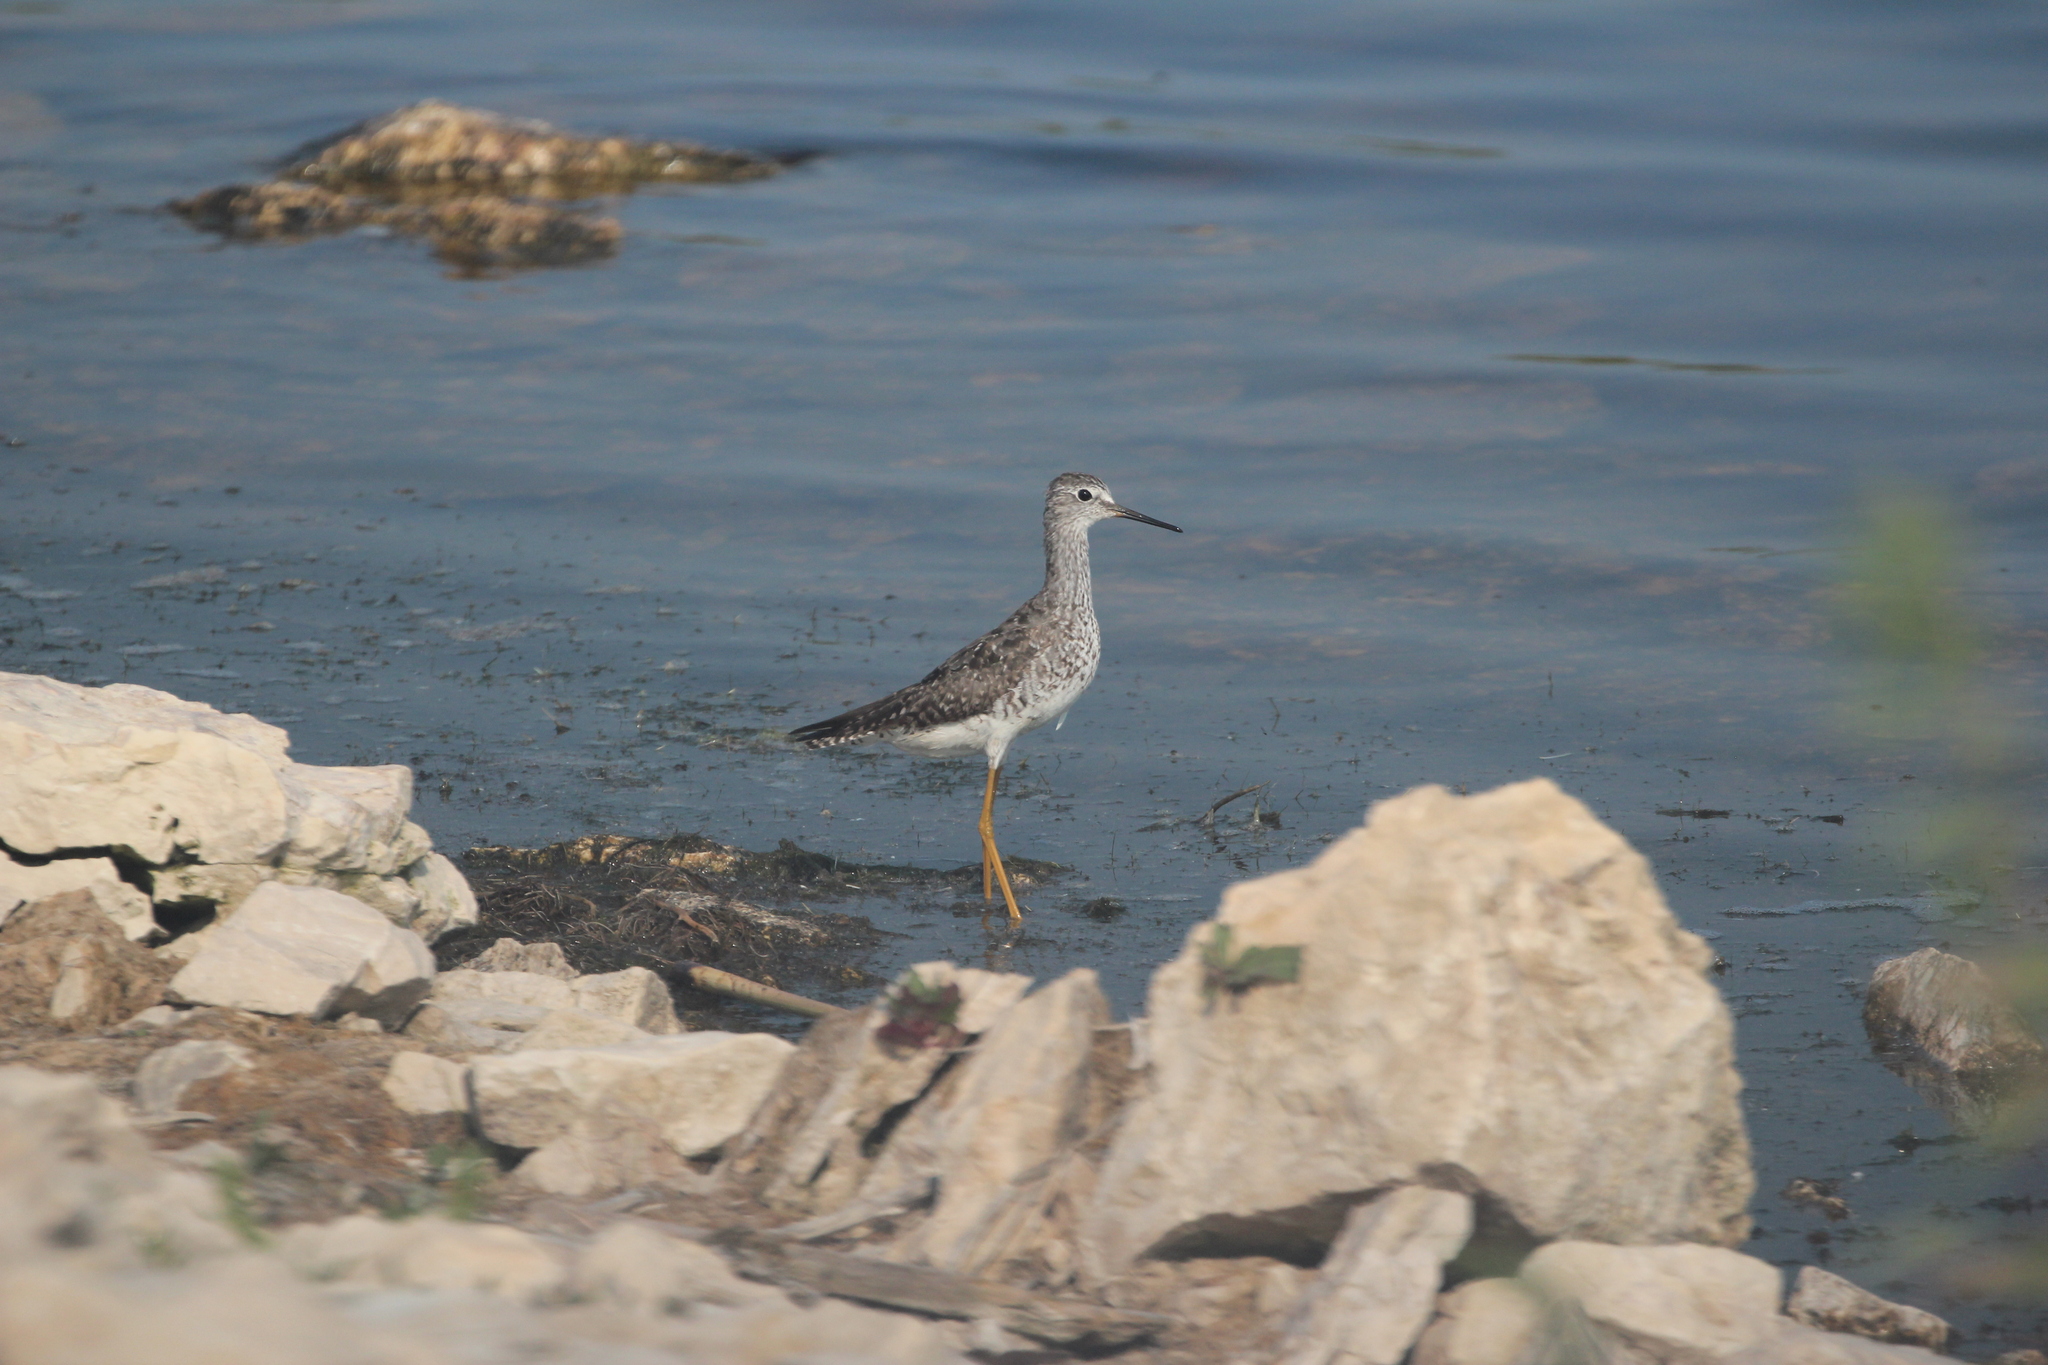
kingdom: Animalia
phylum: Chordata
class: Aves
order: Charadriiformes
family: Scolopacidae
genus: Tringa
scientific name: Tringa flavipes
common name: Lesser yellowlegs
